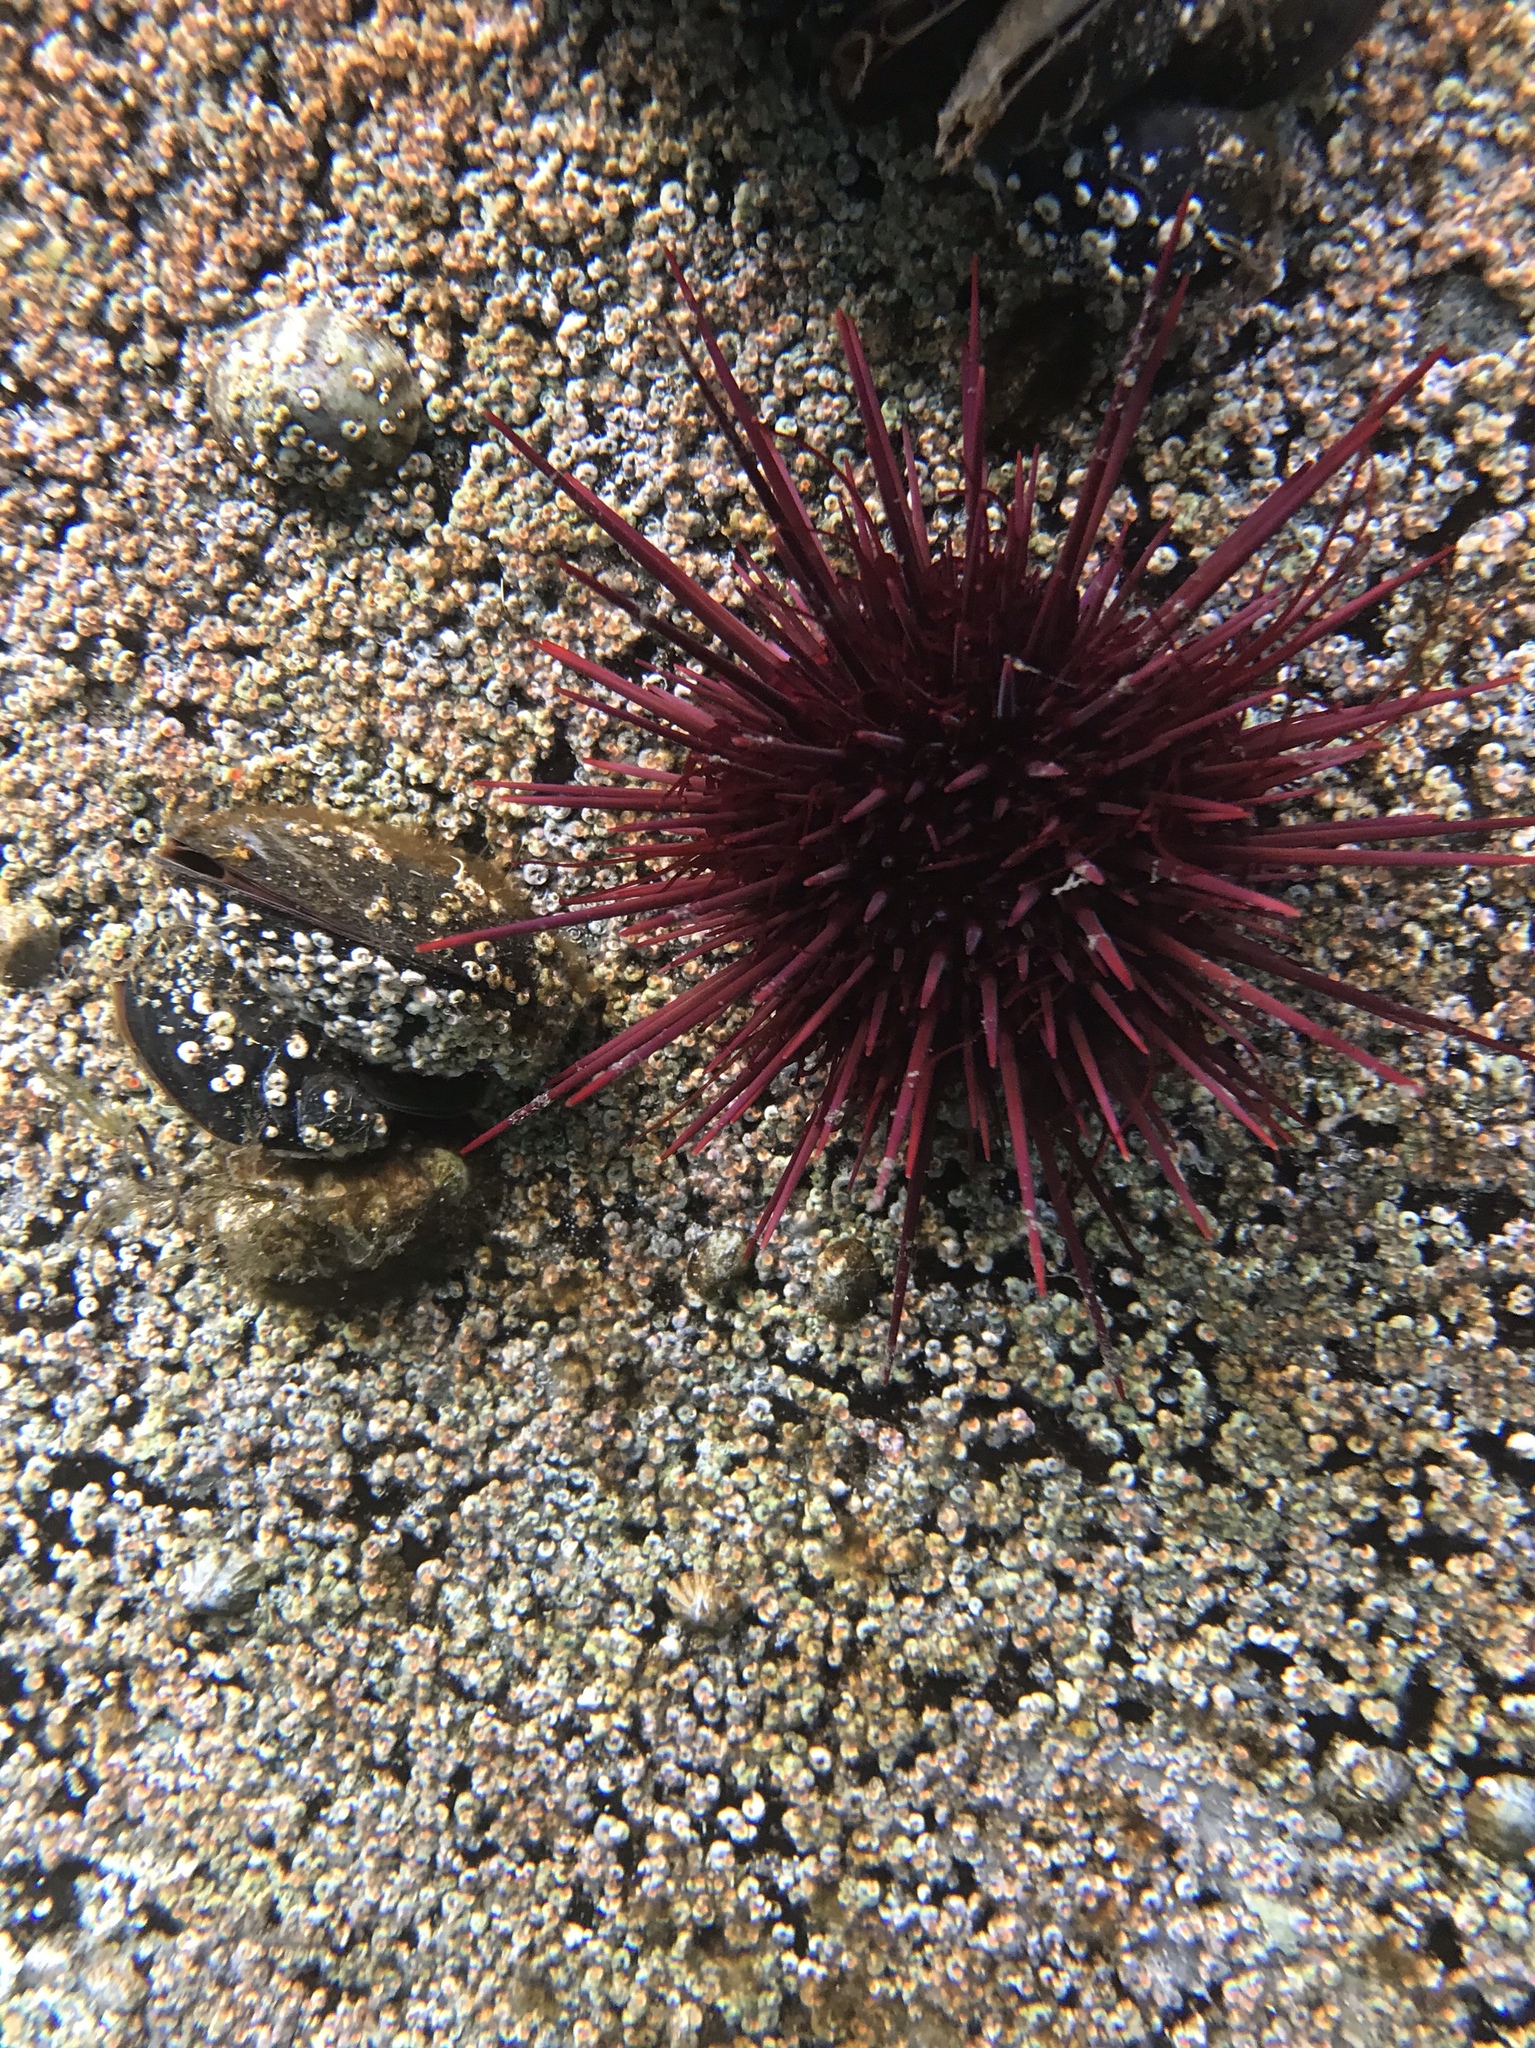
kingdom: Animalia
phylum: Echinodermata
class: Echinoidea
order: Camarodonta
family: Strongylocentrotidae
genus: Mesocentrotus
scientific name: Mesocentrotus franciscanus
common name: Red sea urchin
